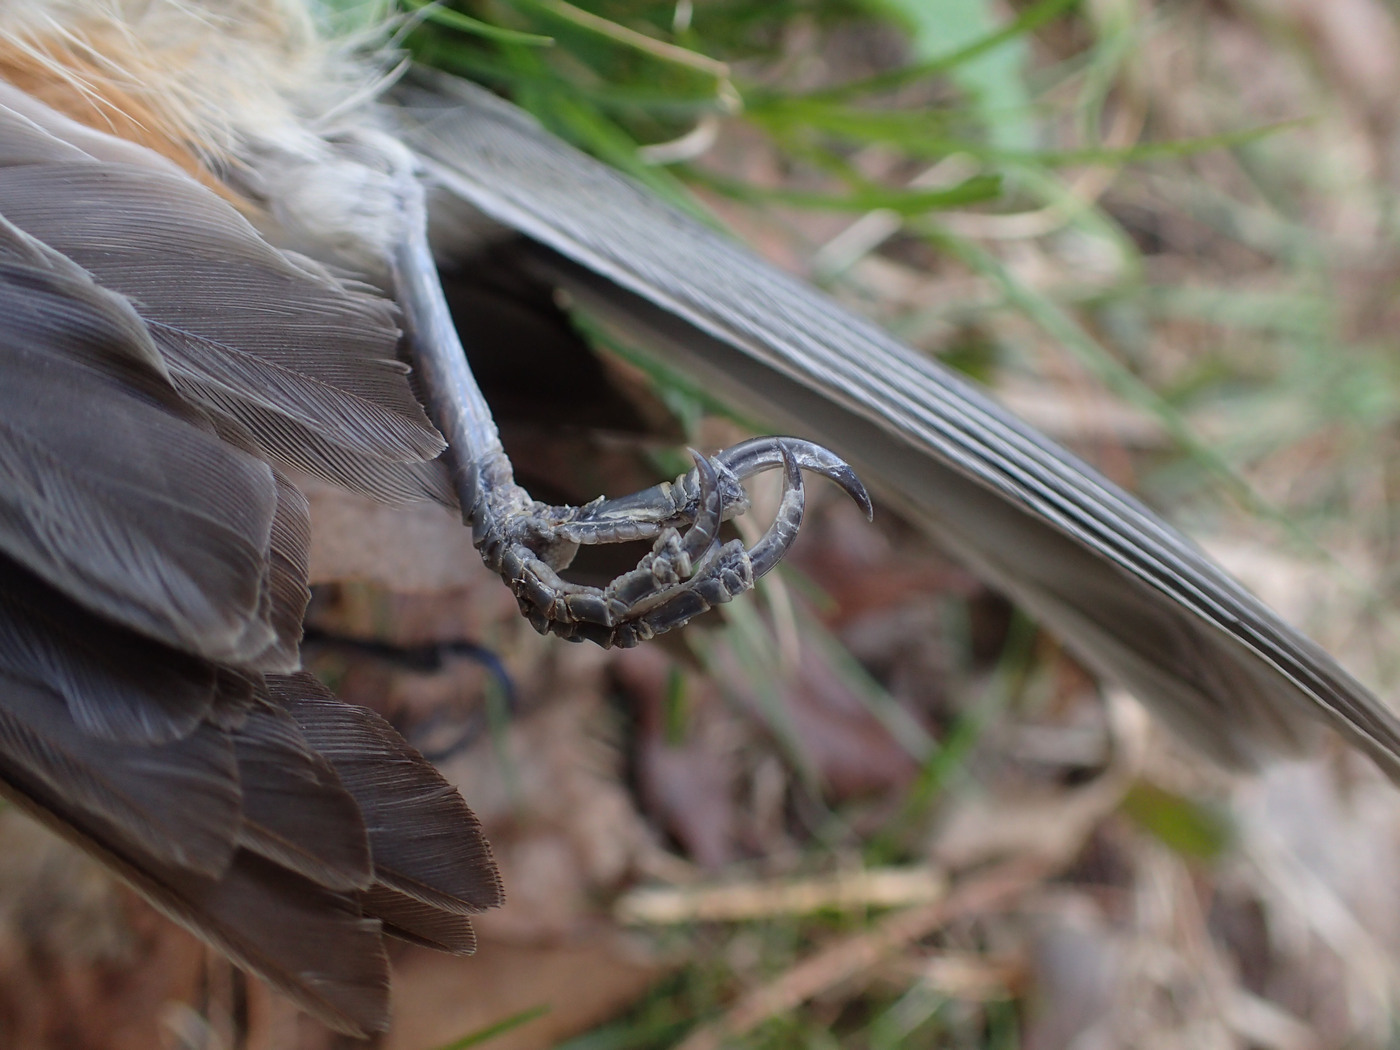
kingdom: Animalia
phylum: Chordata
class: Aves
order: Passeriformes
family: Paridae
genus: Baeolophus
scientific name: Baeolophus bicolor
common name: Tufted titmouse
